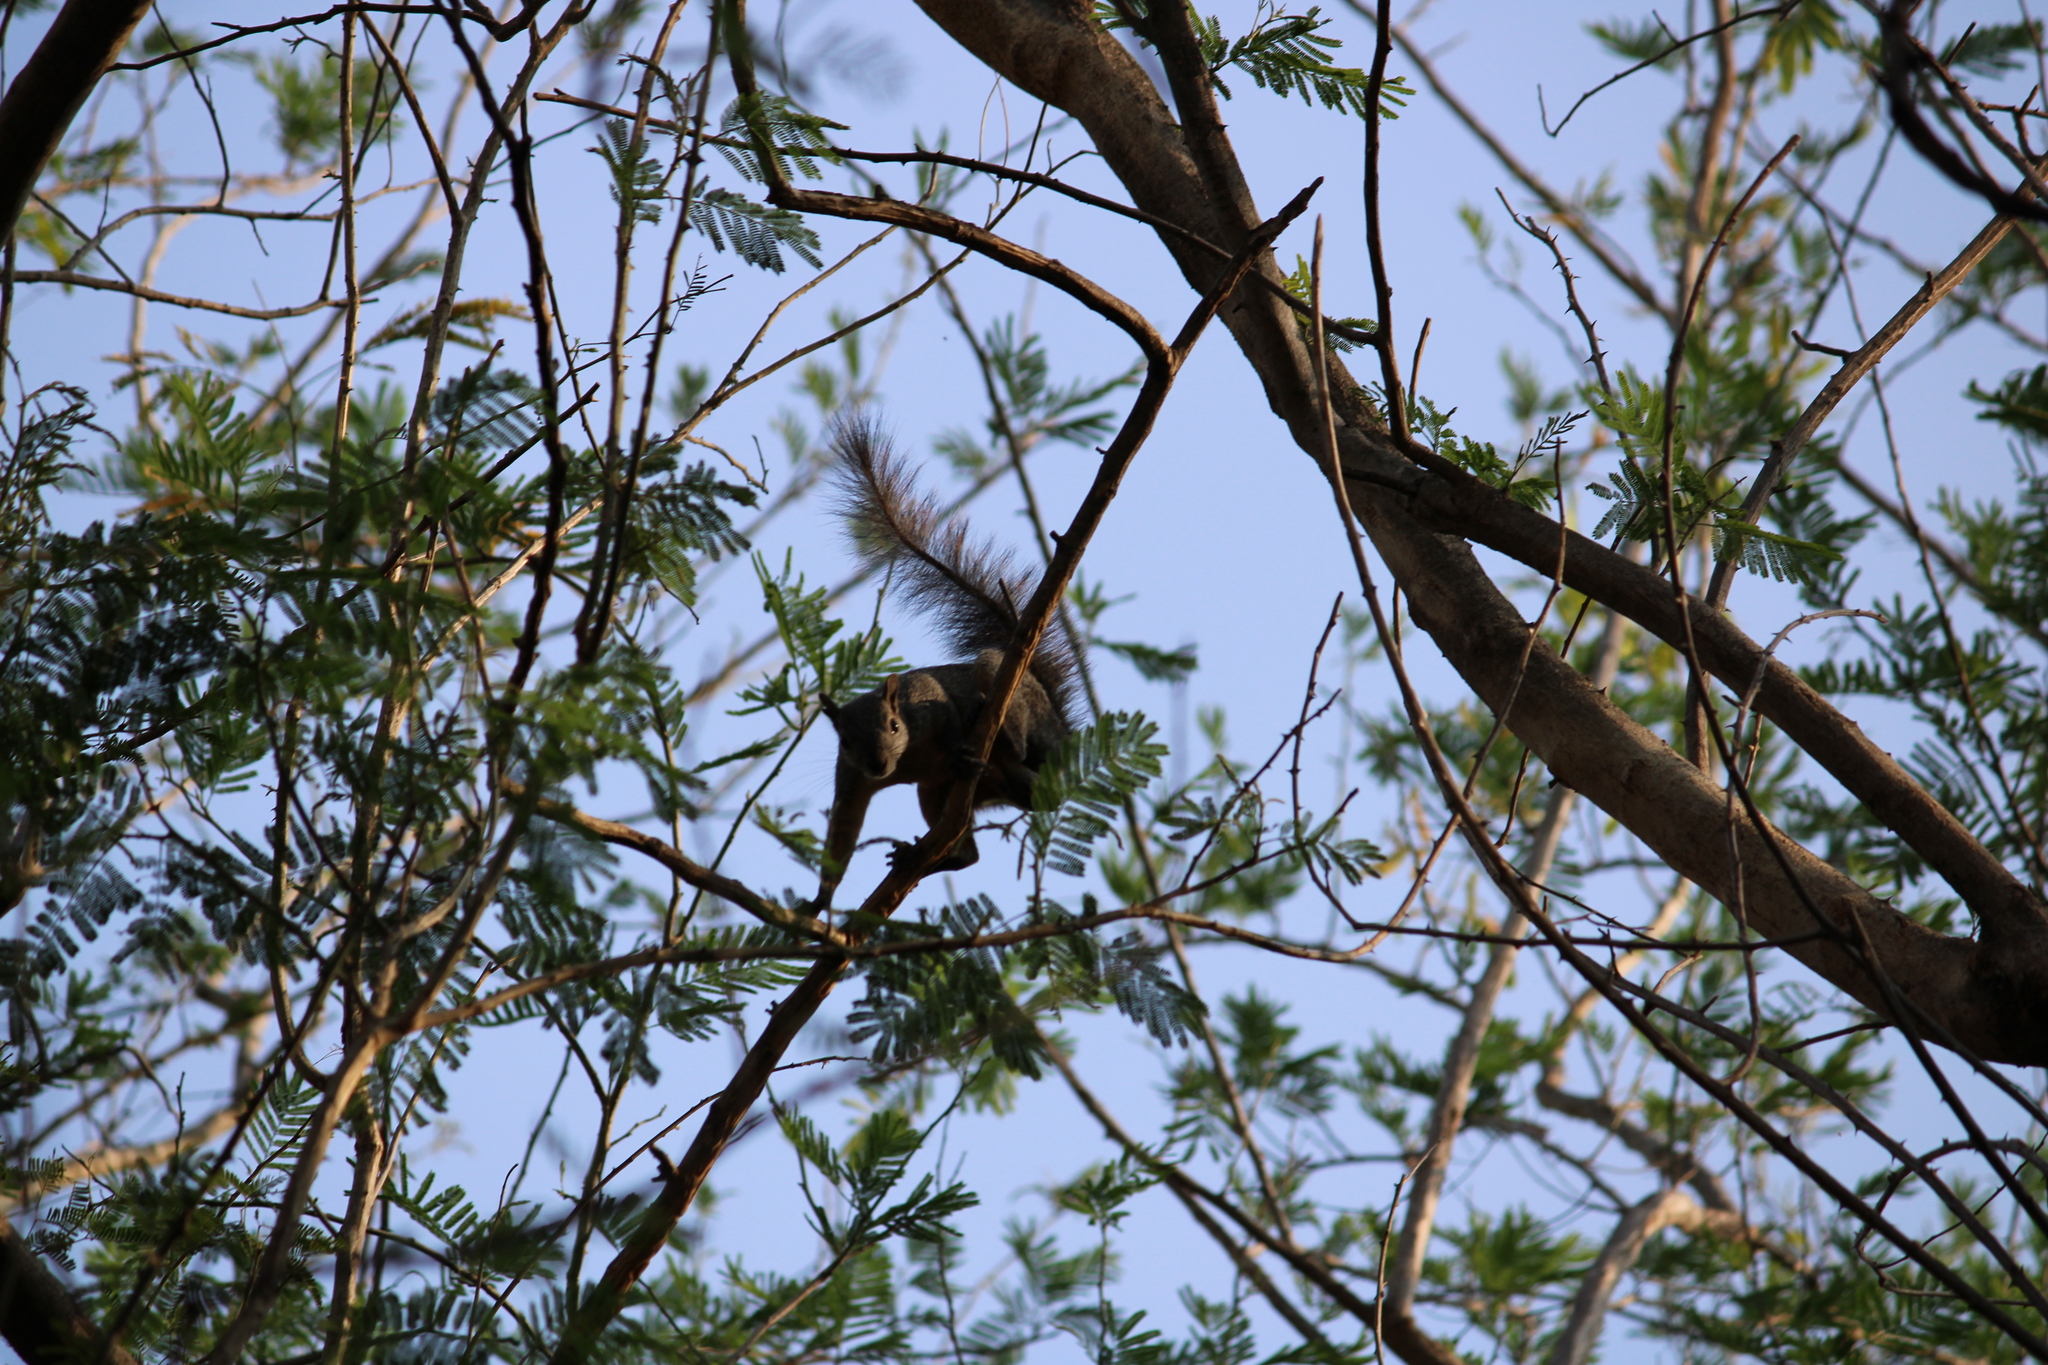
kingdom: Animalia
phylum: Chordata
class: Mammalia
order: Rodentia
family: Sciuridae
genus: Sciurus
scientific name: Sciurus aureogaster
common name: Red-bellied squirrel
